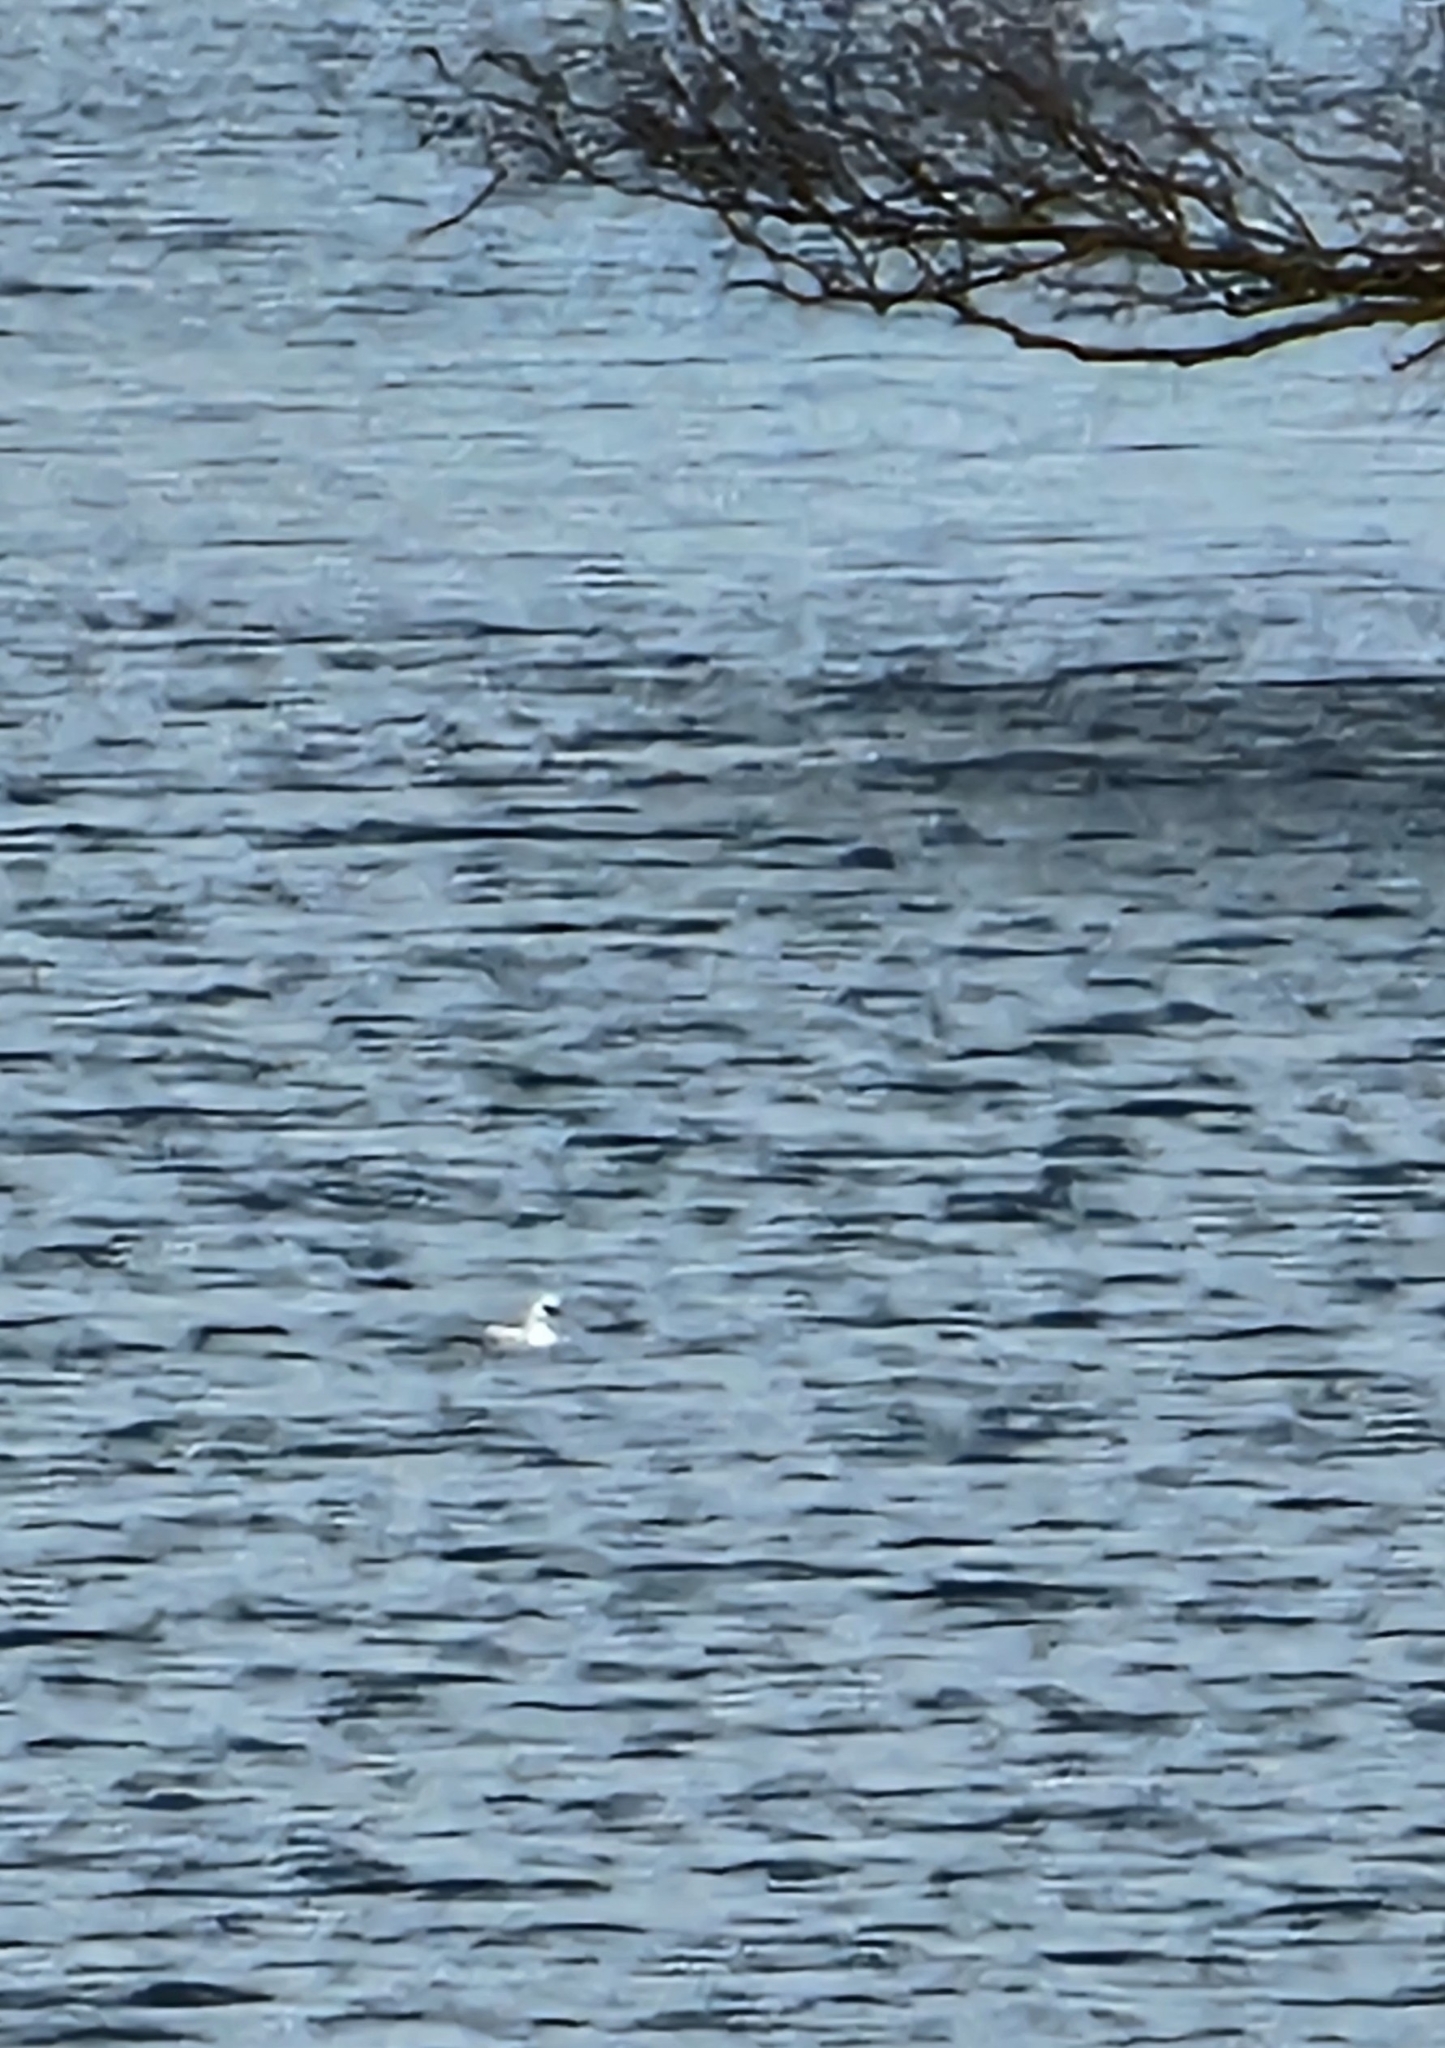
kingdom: Animalia
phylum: Chordata
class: Aves
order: Anseriformes
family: Anatidae
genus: Mergellus
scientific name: Mergellus albellus
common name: Smew
